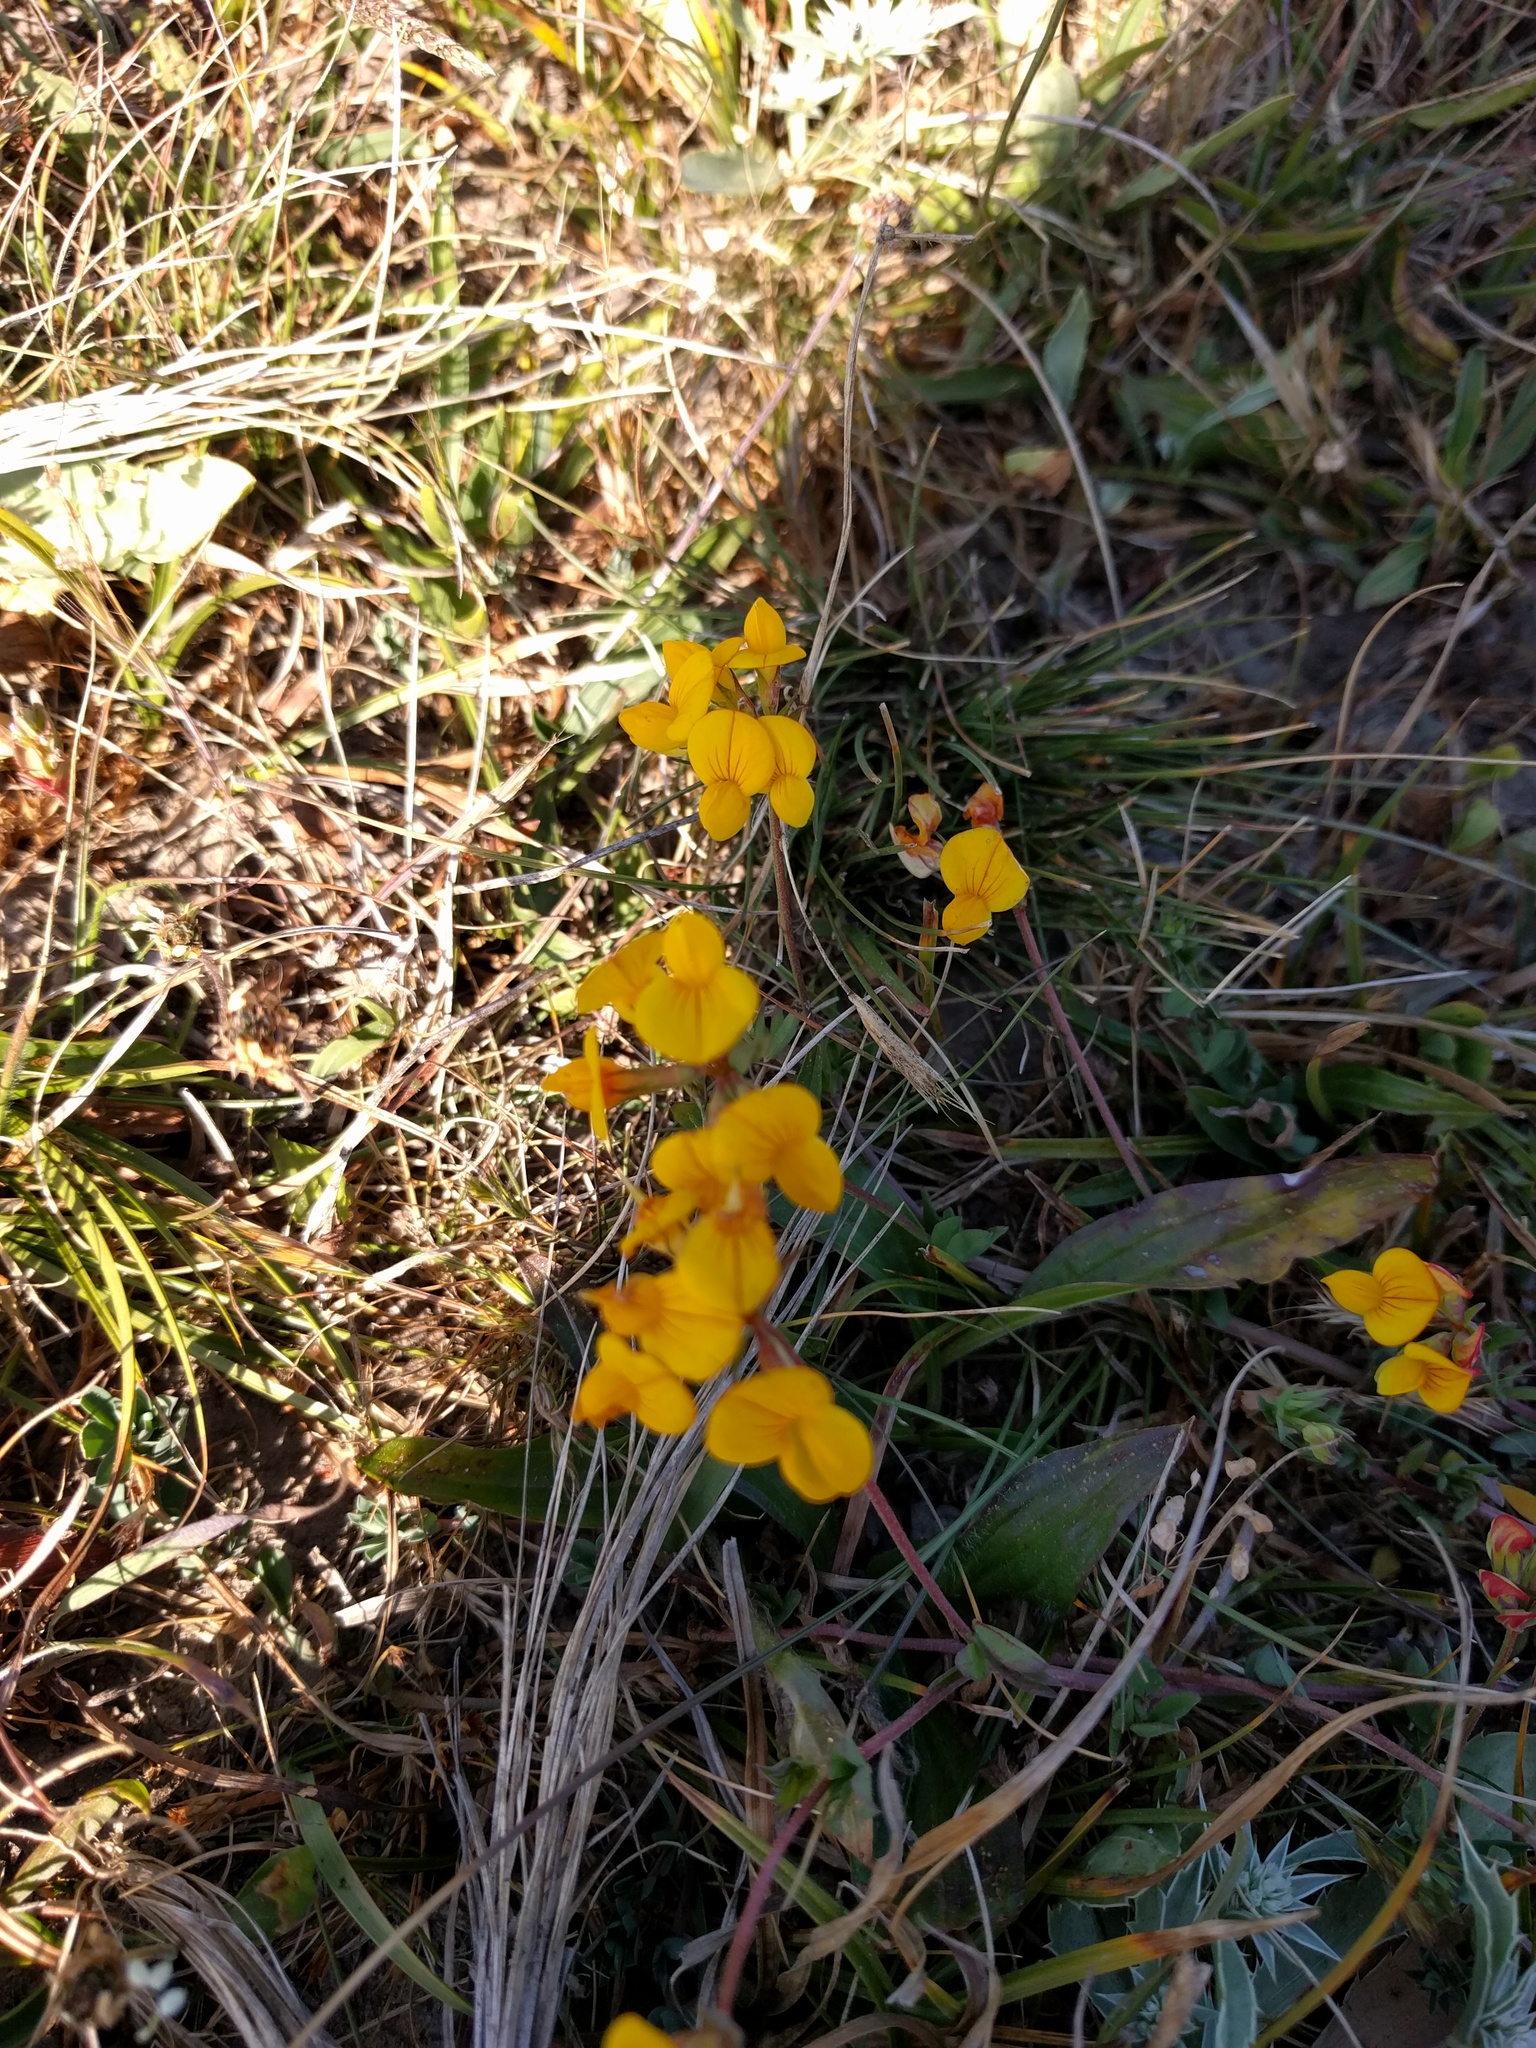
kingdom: Plantae
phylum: Tracheophyta
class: Magnoliopsida
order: Fabales
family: Fabaceae
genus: Lotus
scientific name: Lotus corniculatus
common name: Common bird's-foot-trefoil
